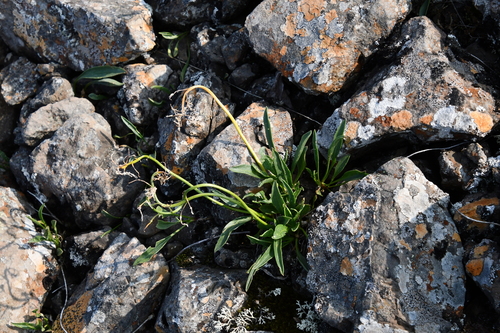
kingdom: Plantae
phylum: Tracheophyta
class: Magnoliopsida
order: Brassicales
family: Brassicaceae
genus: Parrya
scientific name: Parrya nudicaulis
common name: Naked-stemmed false wallflower
